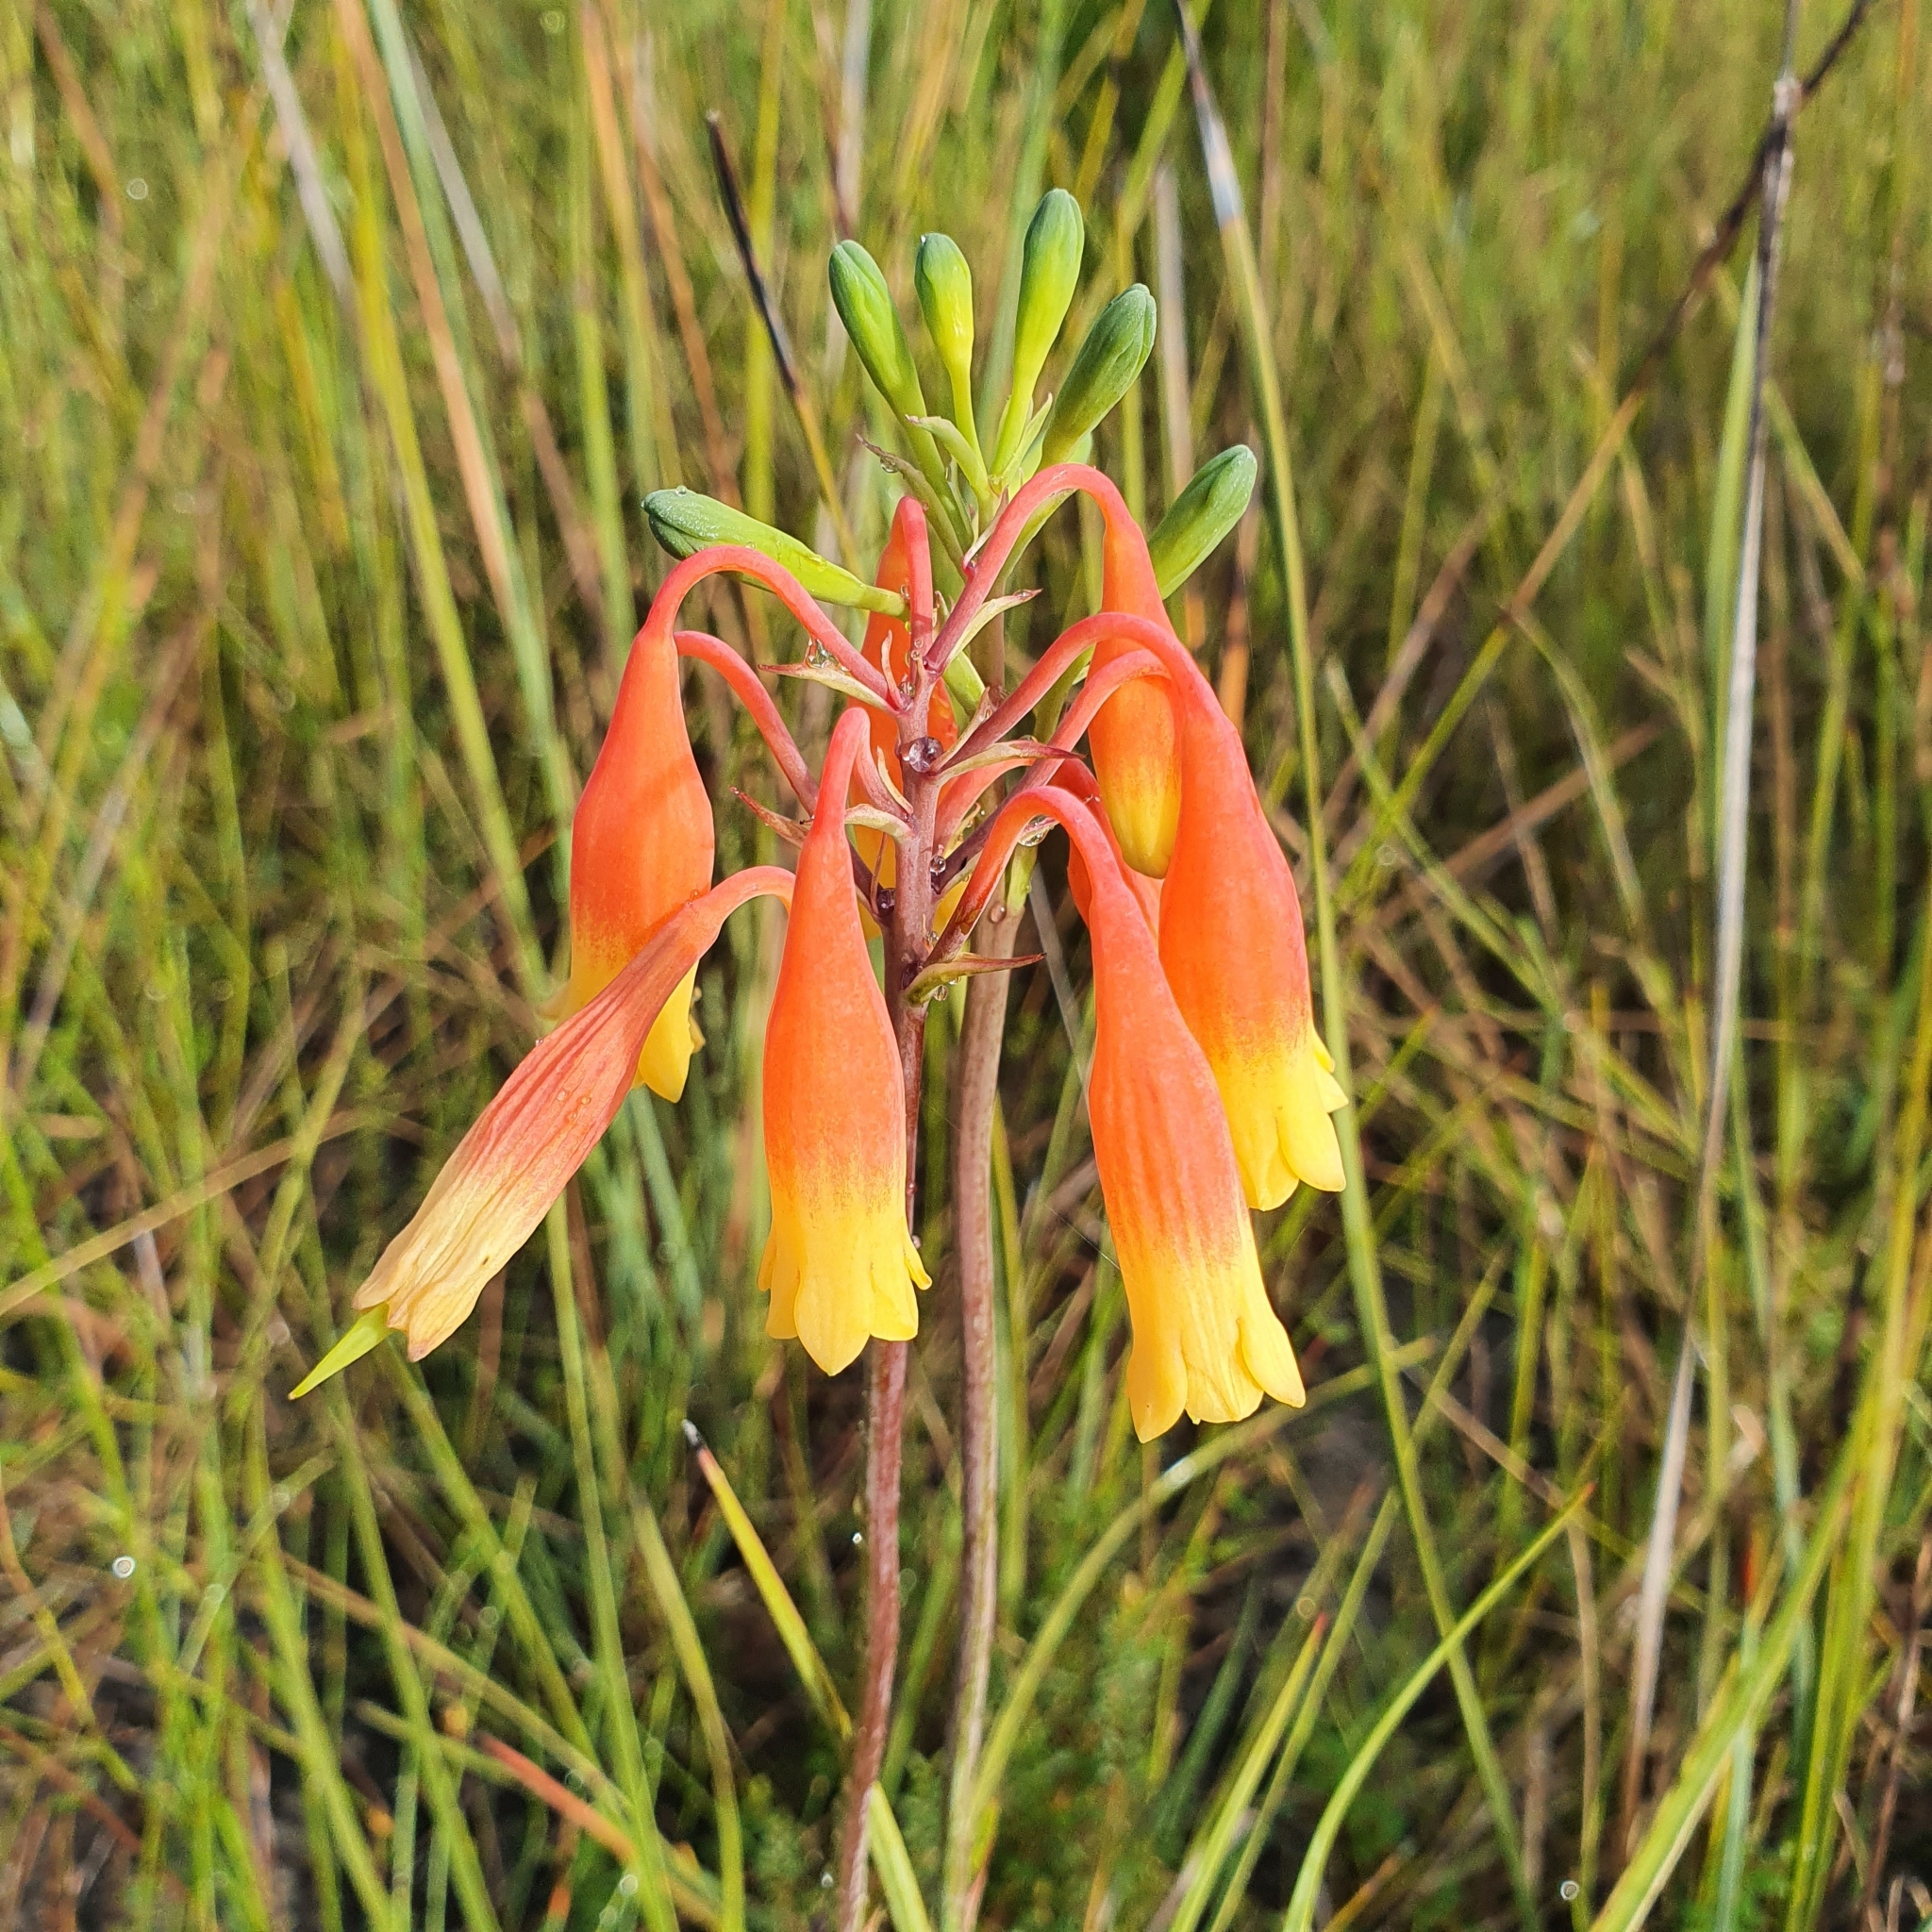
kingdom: Plantae
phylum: Tracheophyta
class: Liliopsida
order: Asparagales
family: Blandfordiaceae
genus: Blandfordia
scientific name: Blandfordia nobilis
